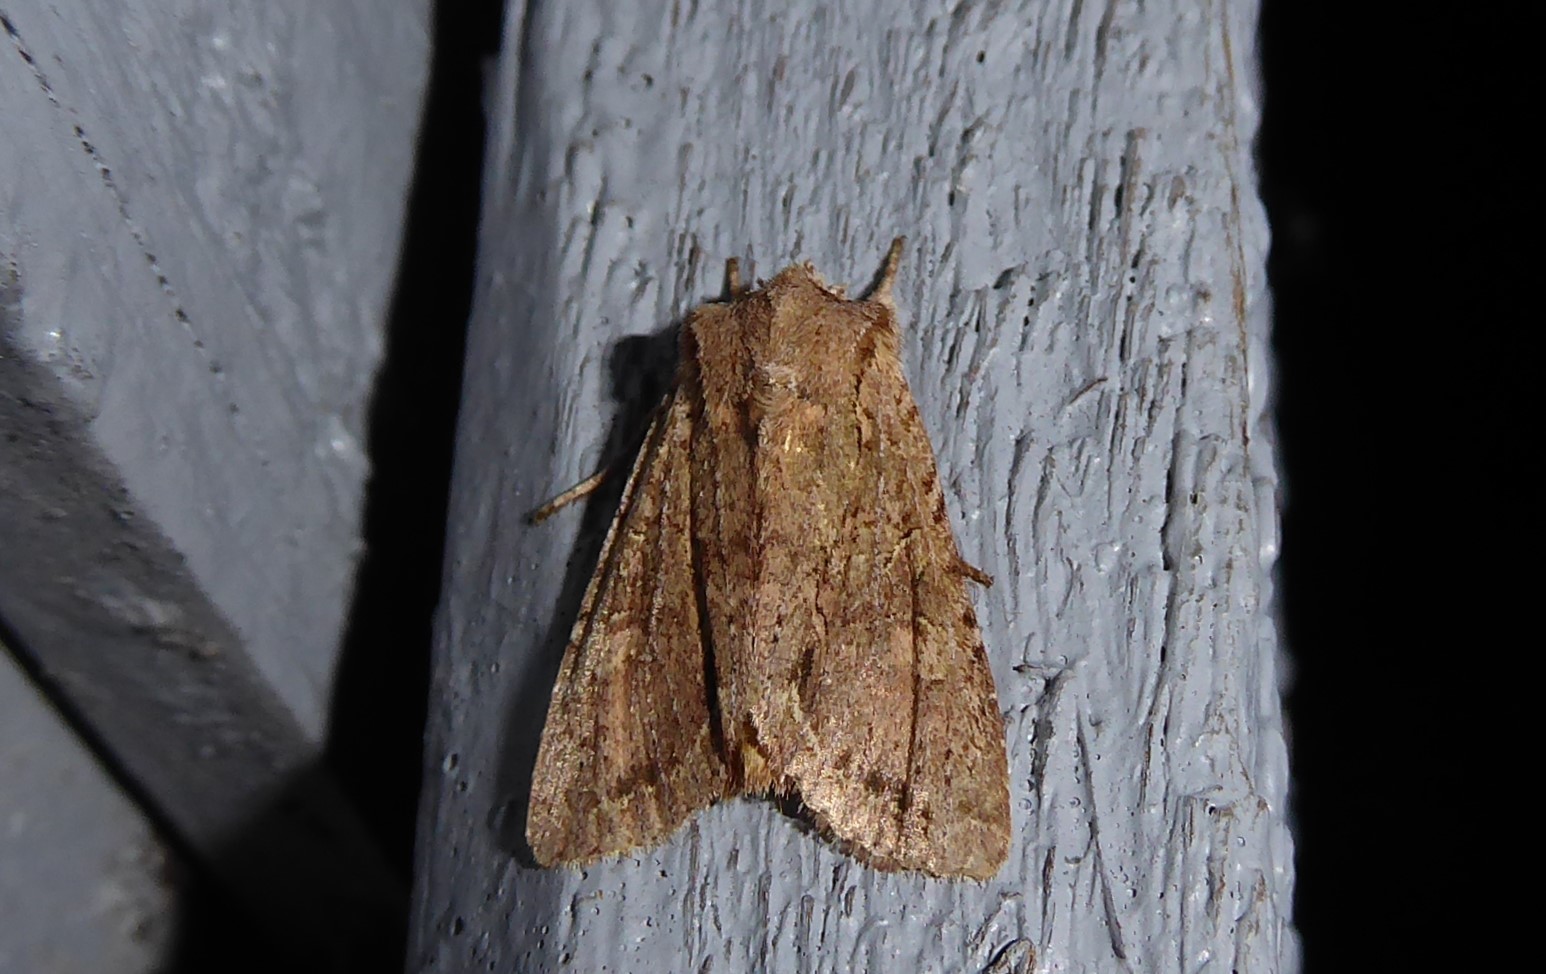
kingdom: Animalia
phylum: Arthropoda
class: Insecta
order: Lepidoptera
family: Noctuidae
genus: Ichneutica
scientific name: Ichneutica
